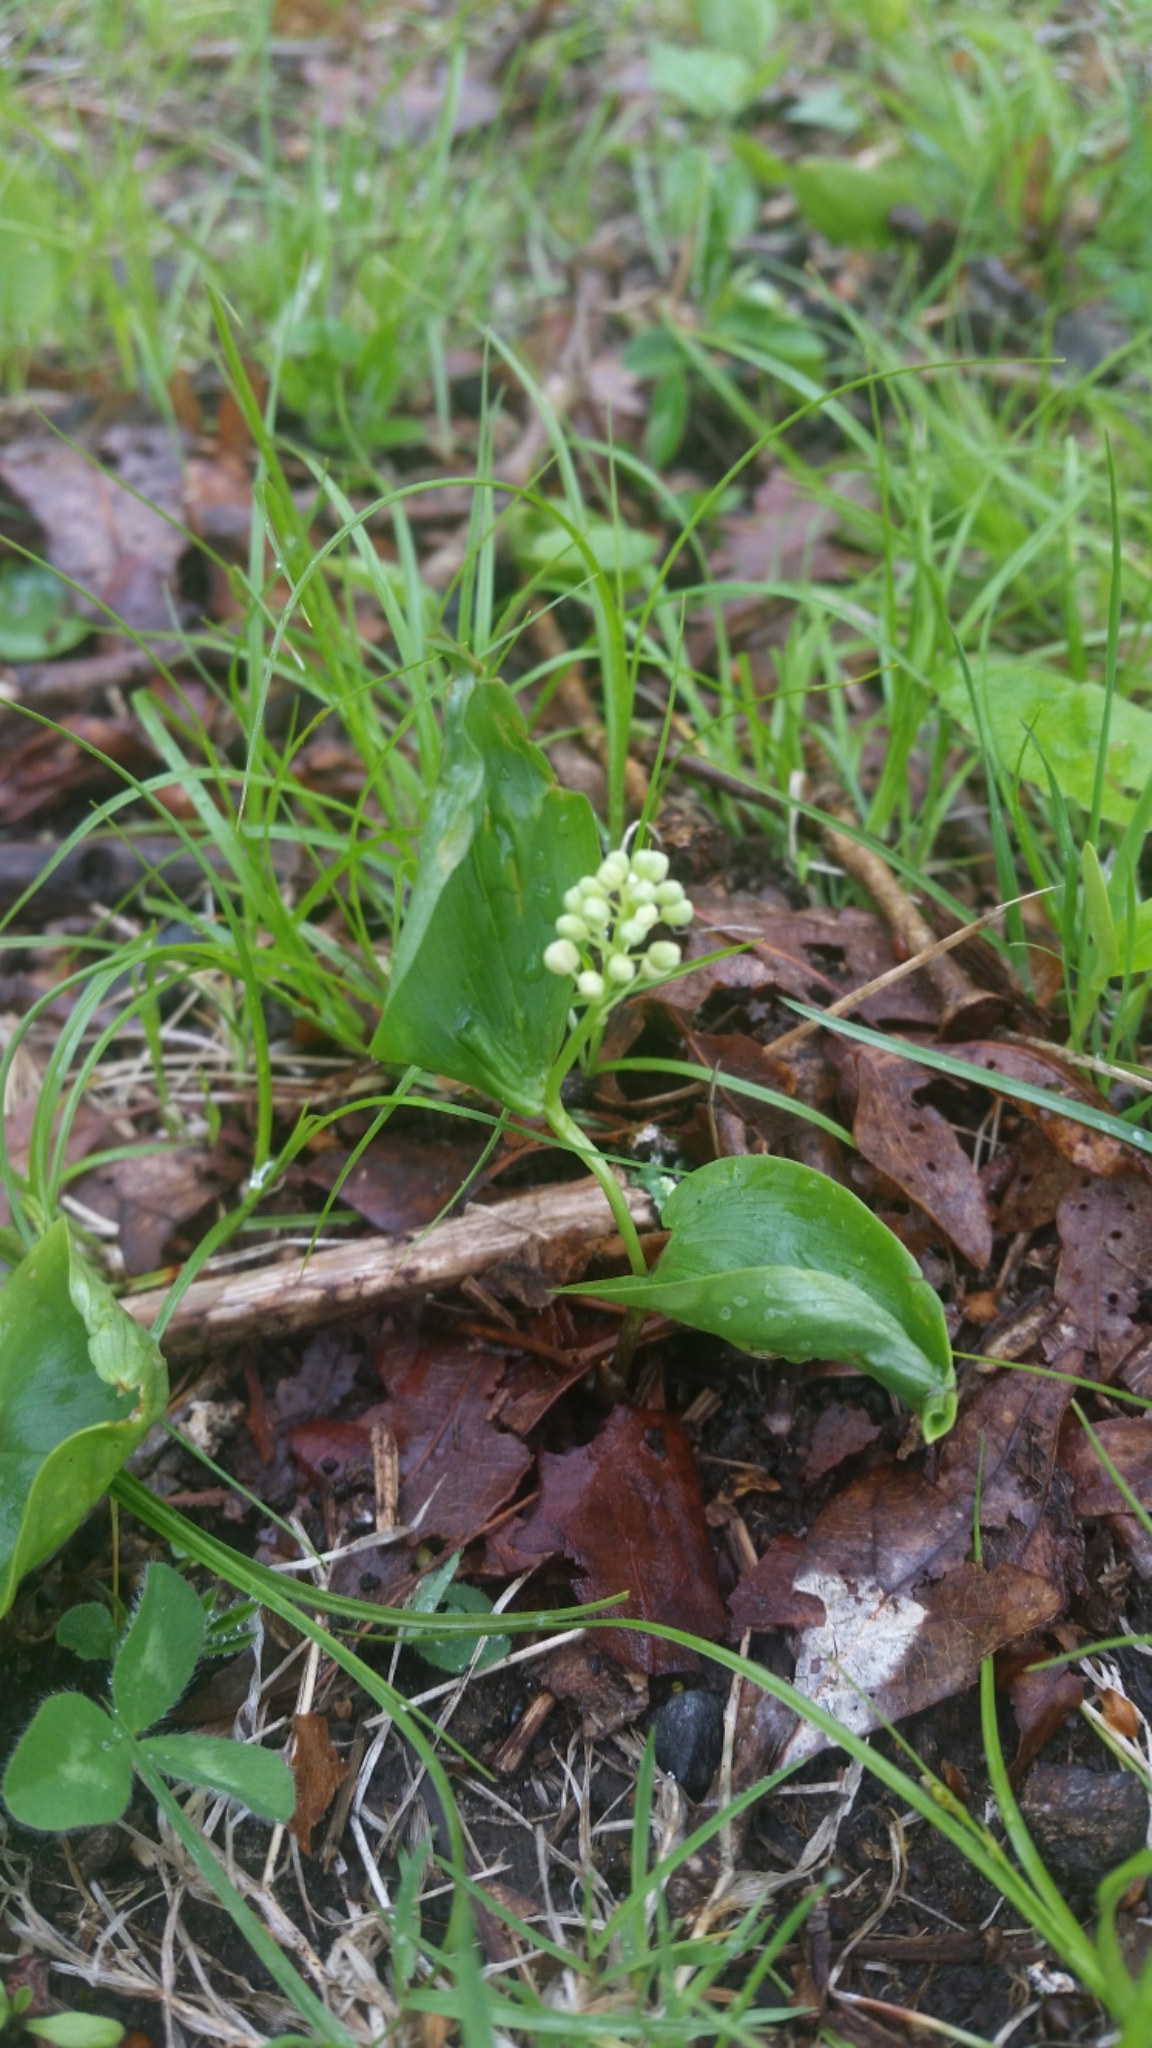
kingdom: Plantae
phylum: Tracheophyta
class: Liliopsida
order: Asparagales
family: Asparagaceae
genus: Maianthemum
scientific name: Maianthemum canadense
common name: False lily-of-the-valley
